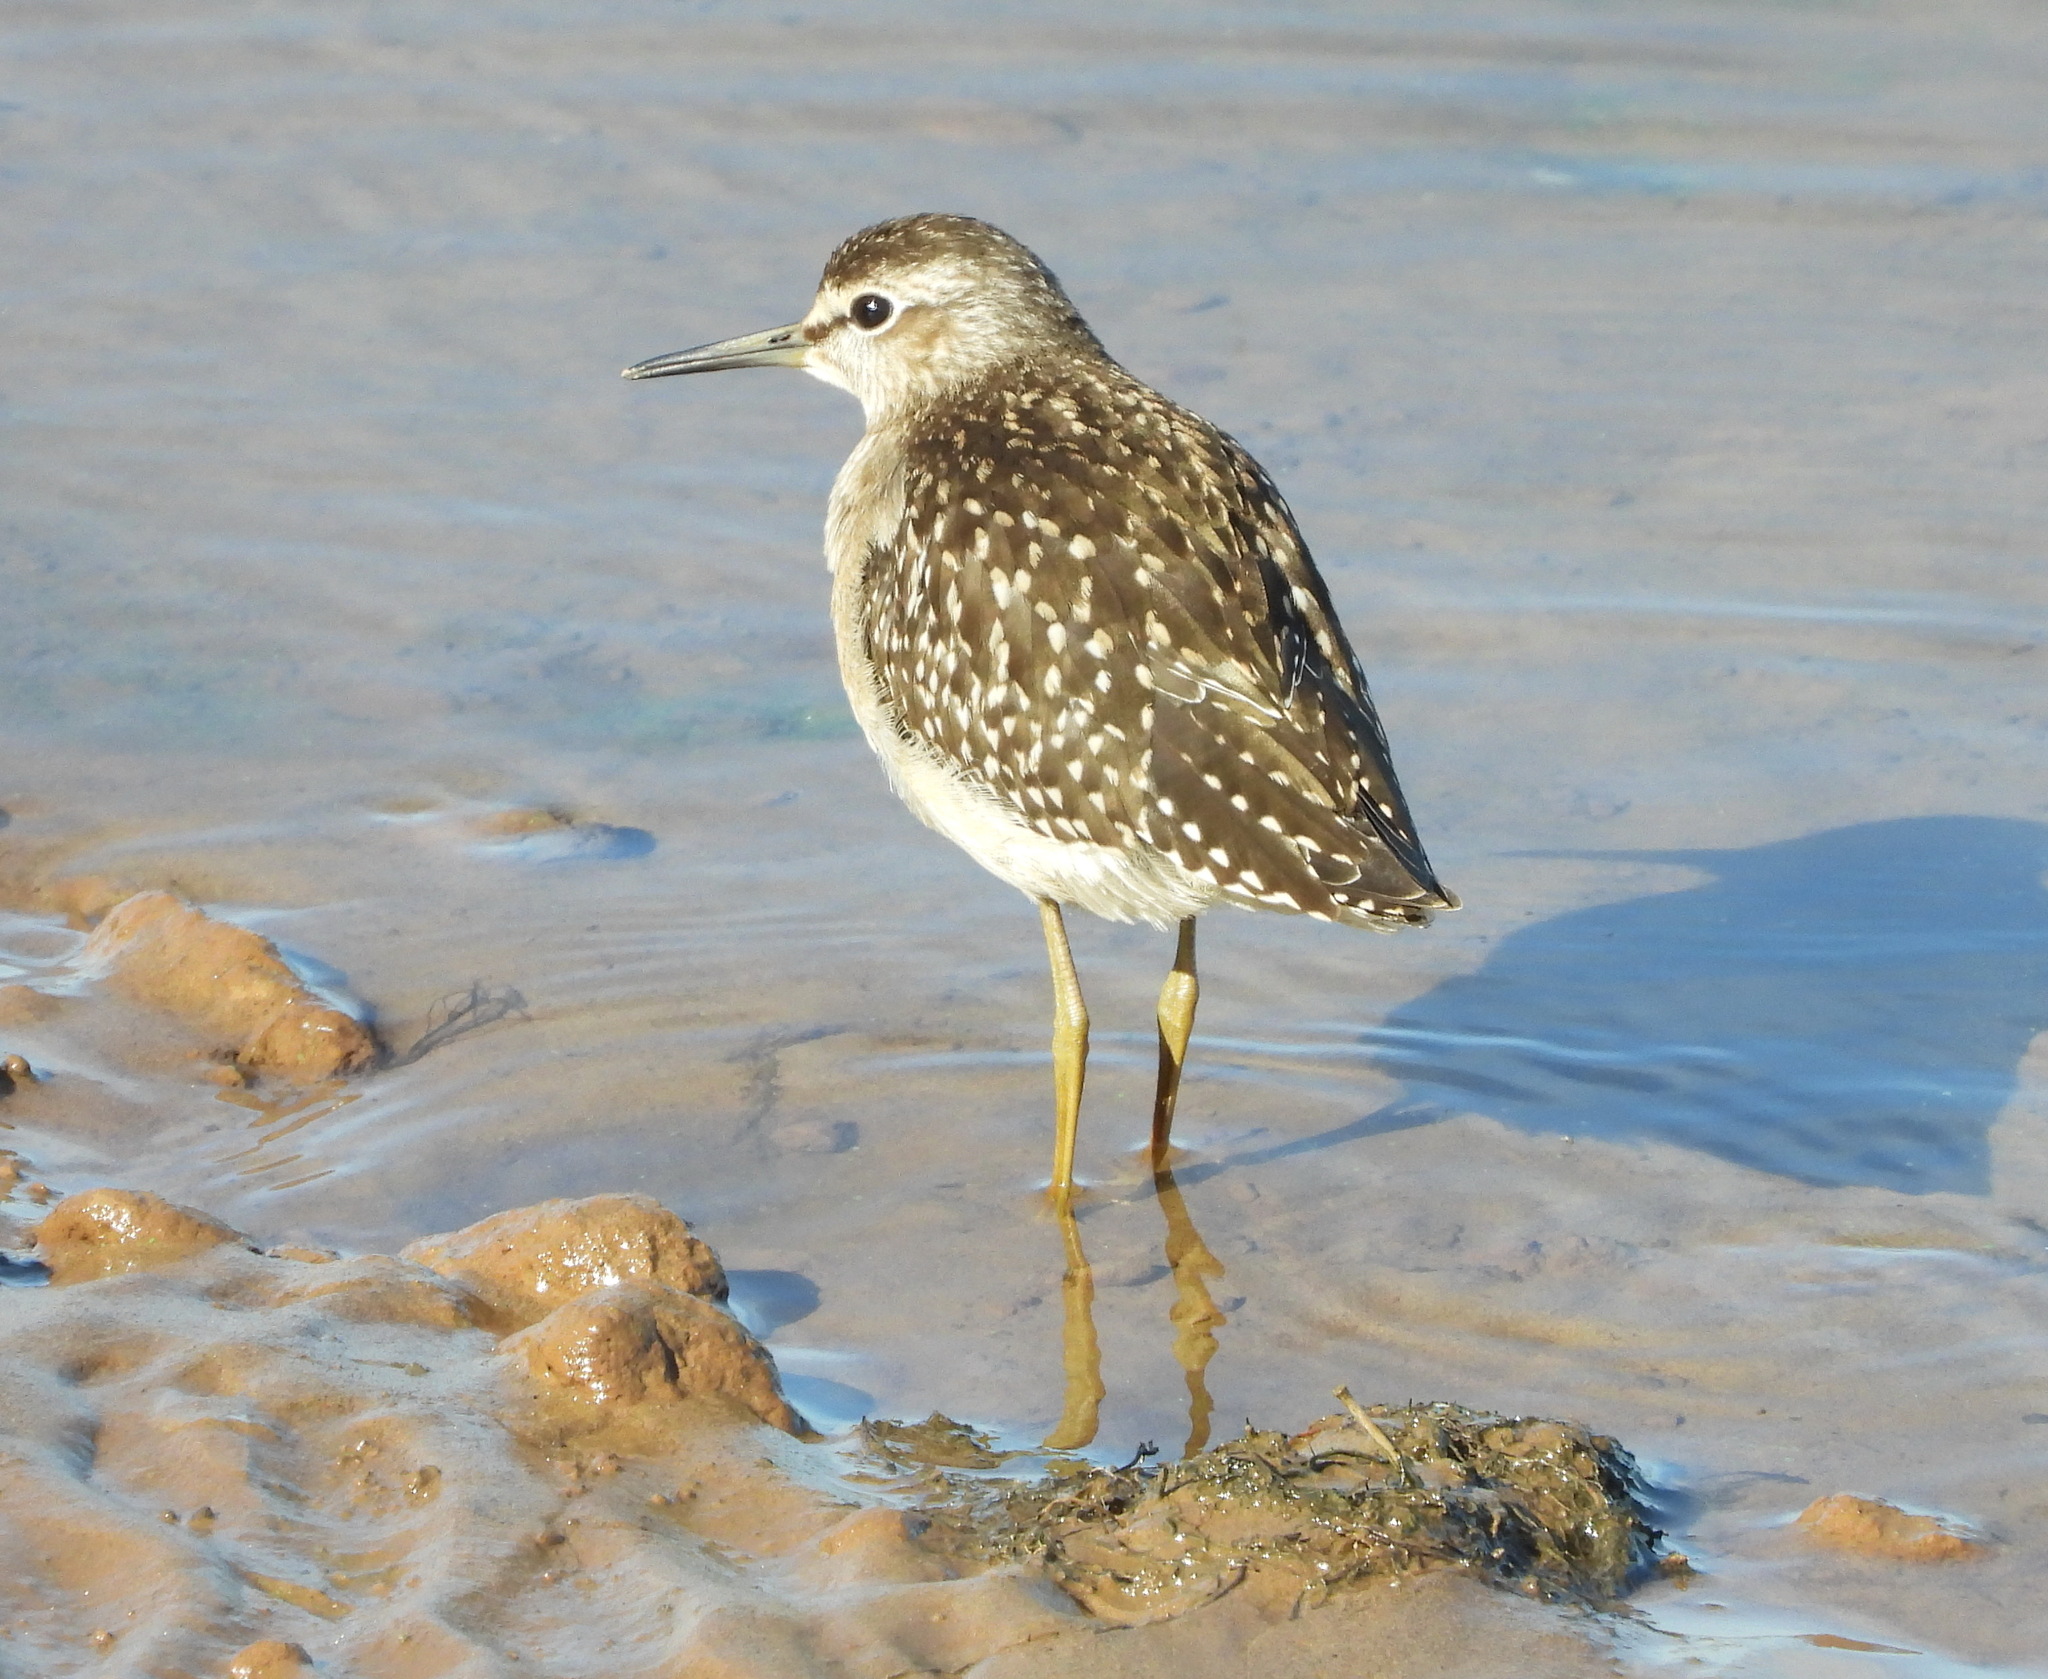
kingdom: Animalia
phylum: Chordata
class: Aves
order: Charadriiformes
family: Scolopacidae
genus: Tringa
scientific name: Tringa glareola
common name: Wood sandpiper
